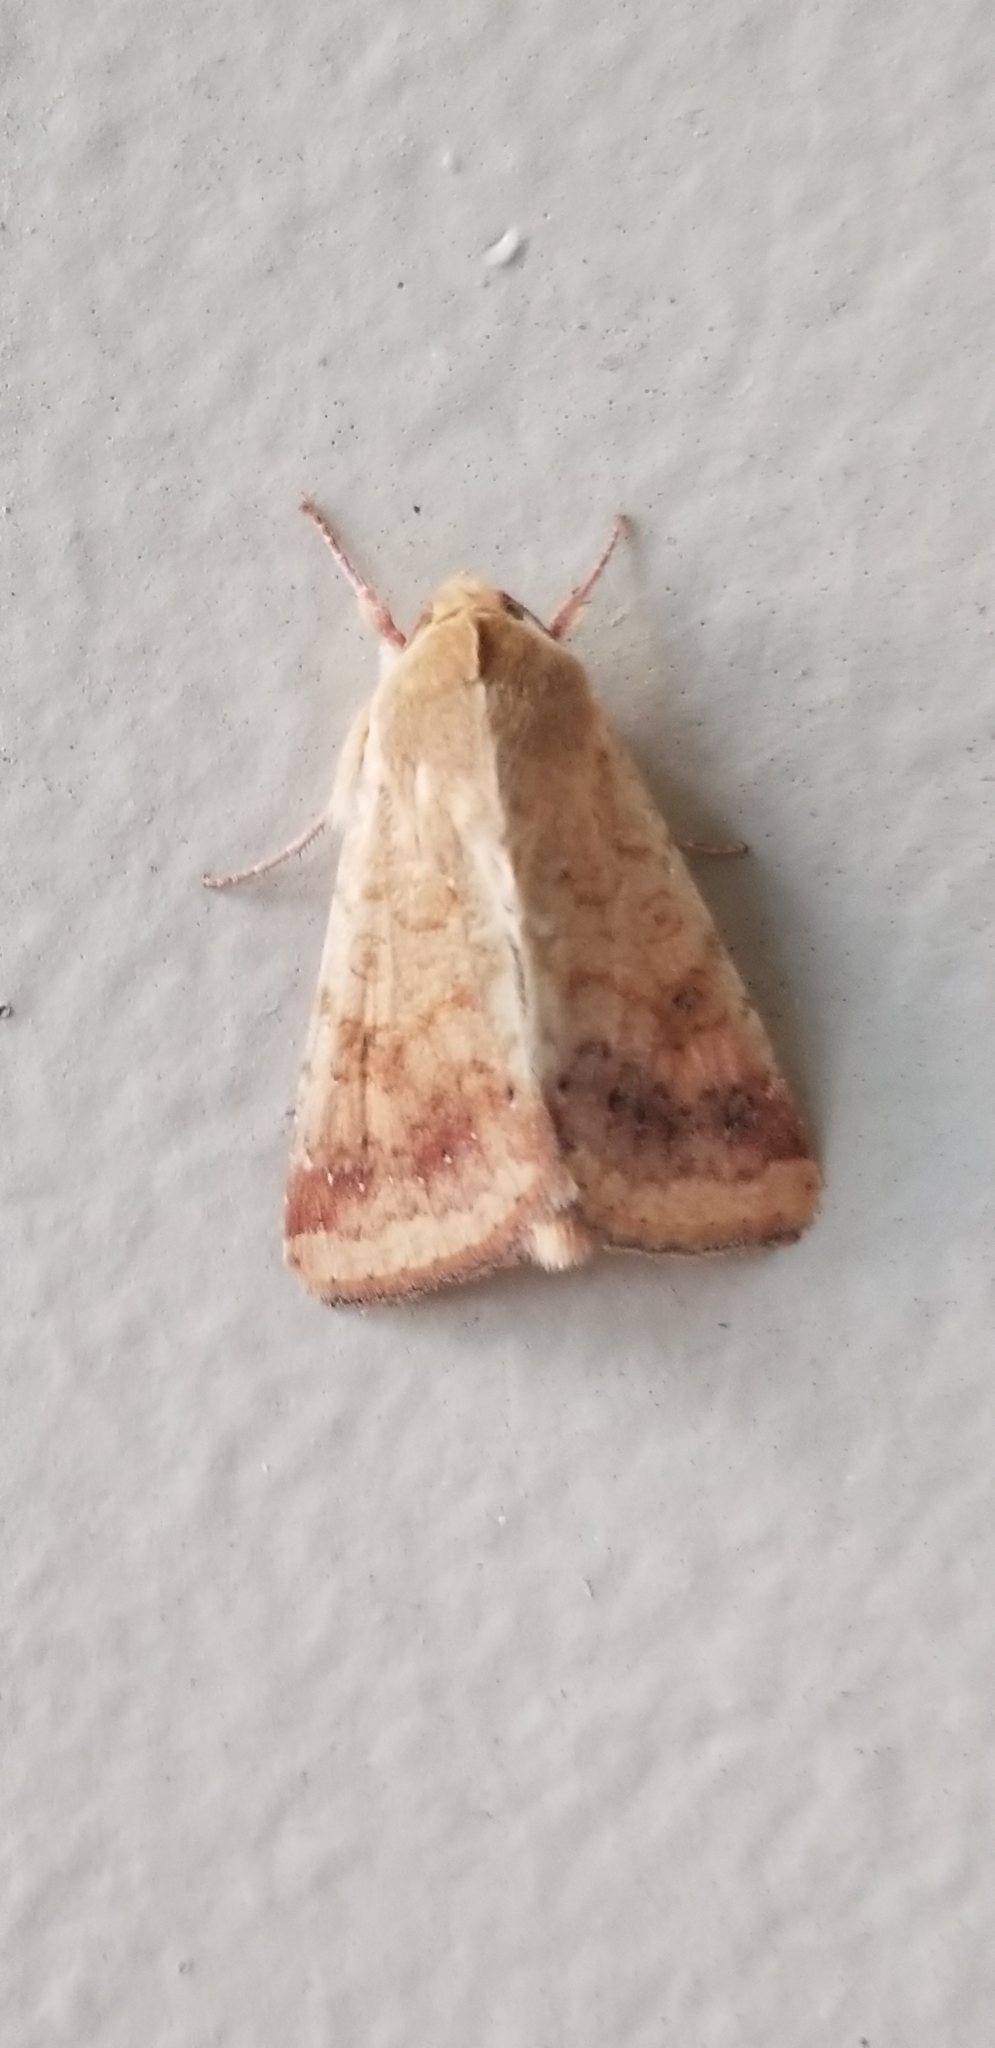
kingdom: Animalia
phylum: Arthropoda
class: Insecta
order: Lepidoptera
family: Noctuidae
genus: Helicoverpa
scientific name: Helicoverpa zea
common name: Bollworm
